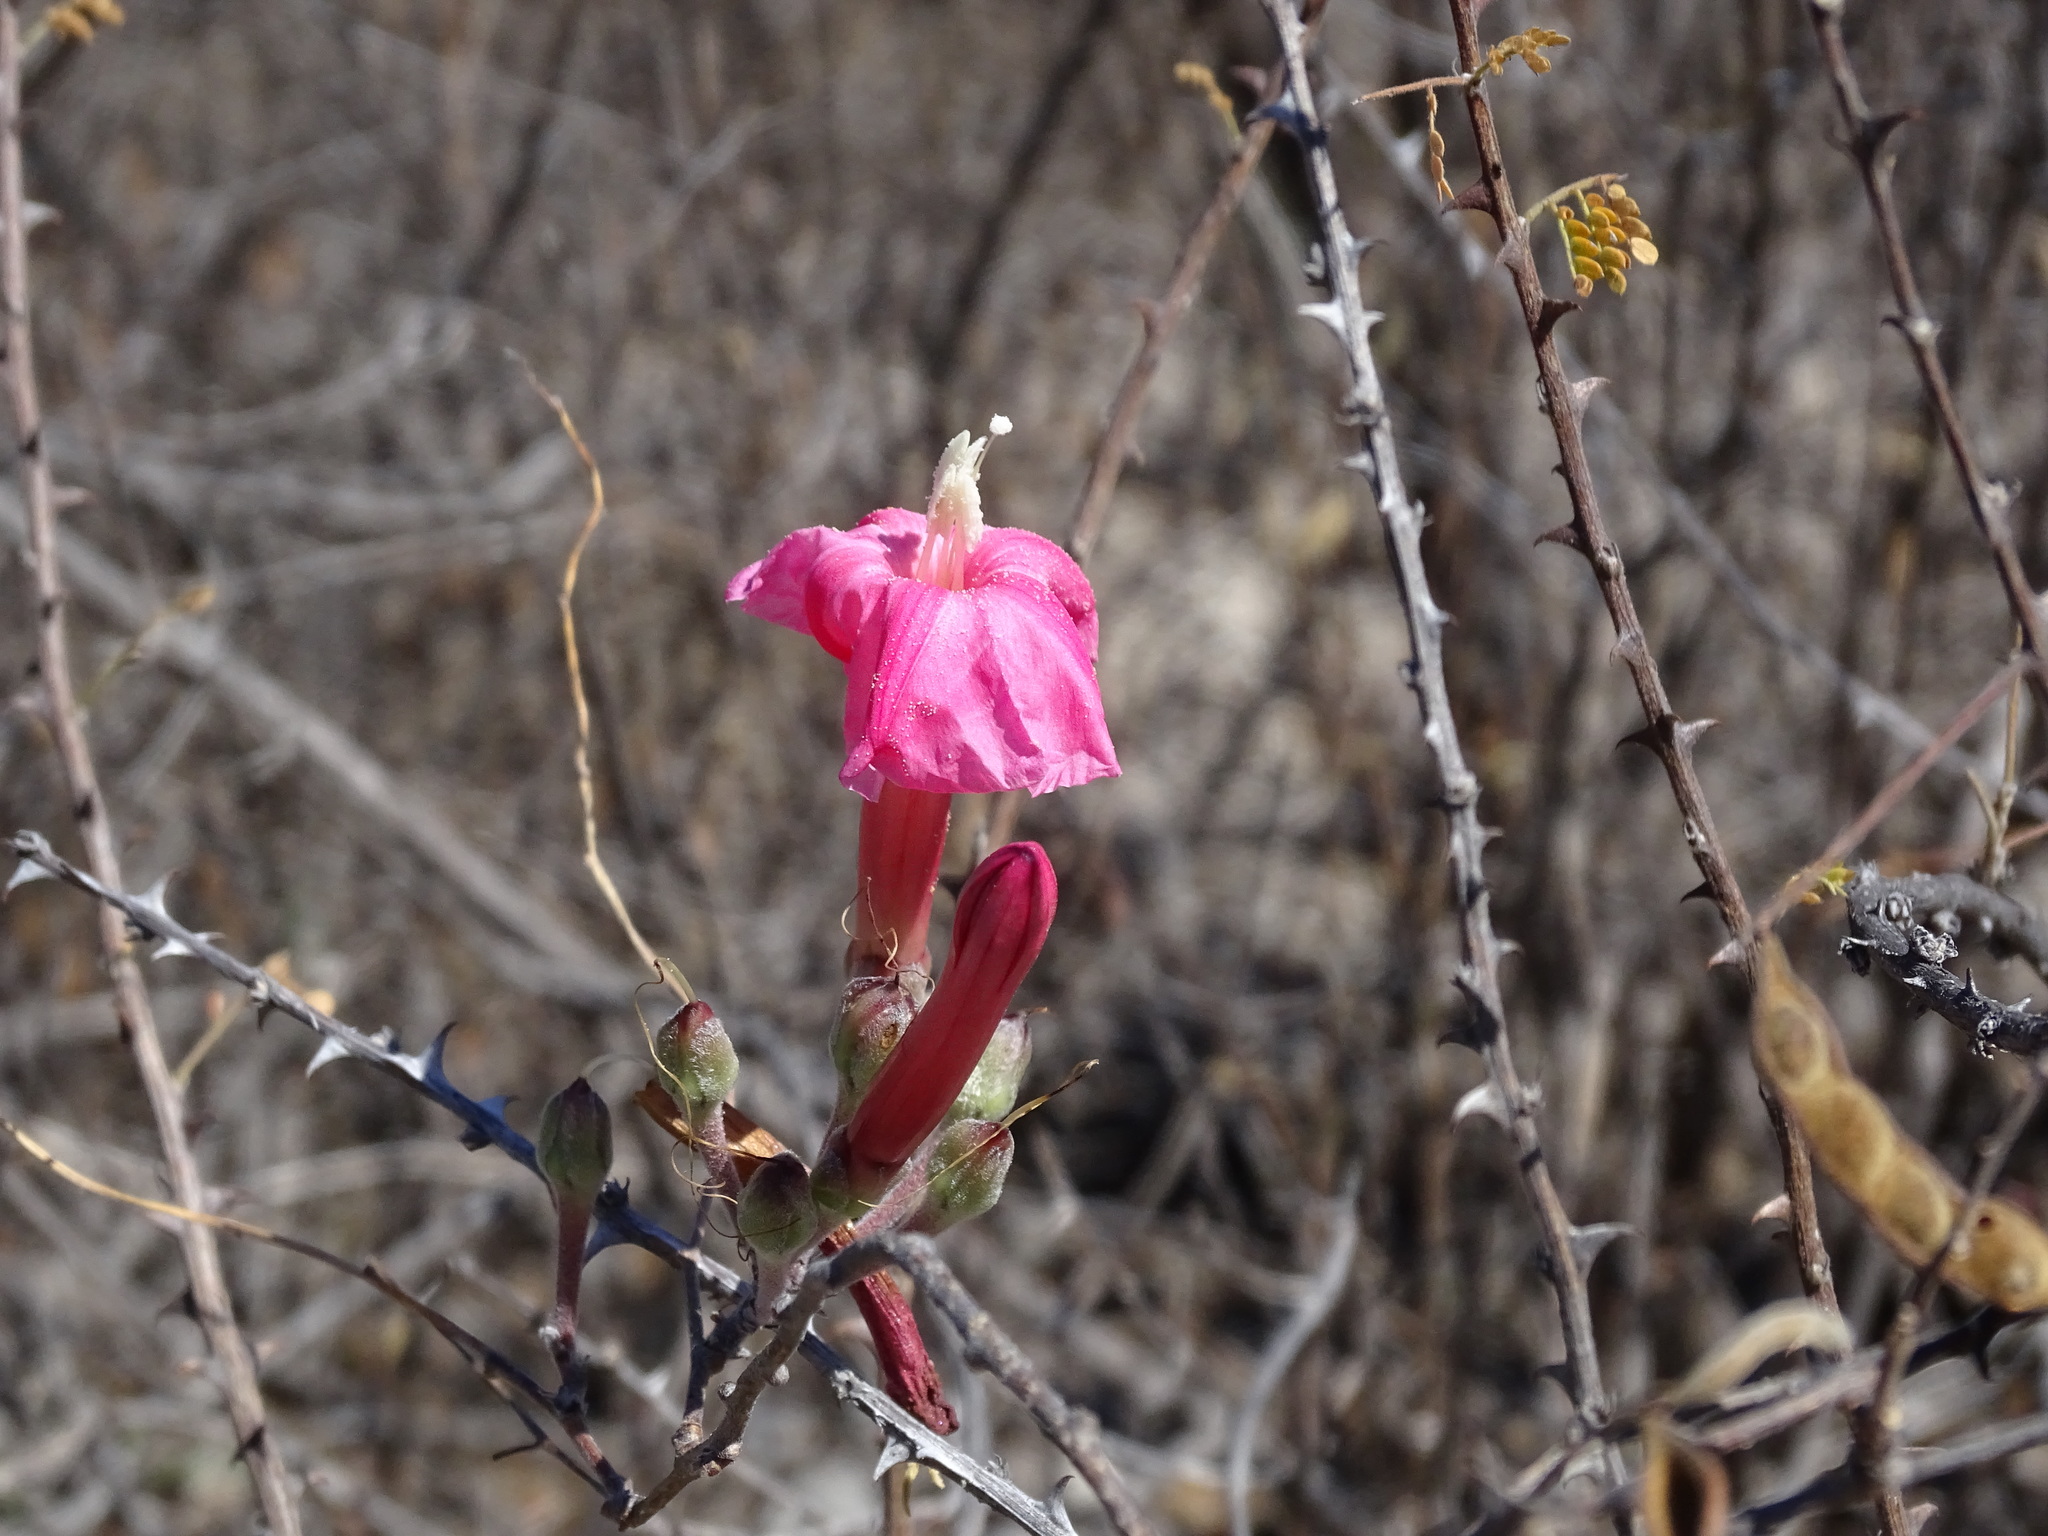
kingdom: Plantae
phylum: Tracheophyta
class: Magnoliopsida
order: Solanales
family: Convolvulaceae
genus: Ipomoea
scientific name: Ipomoea conzattii
